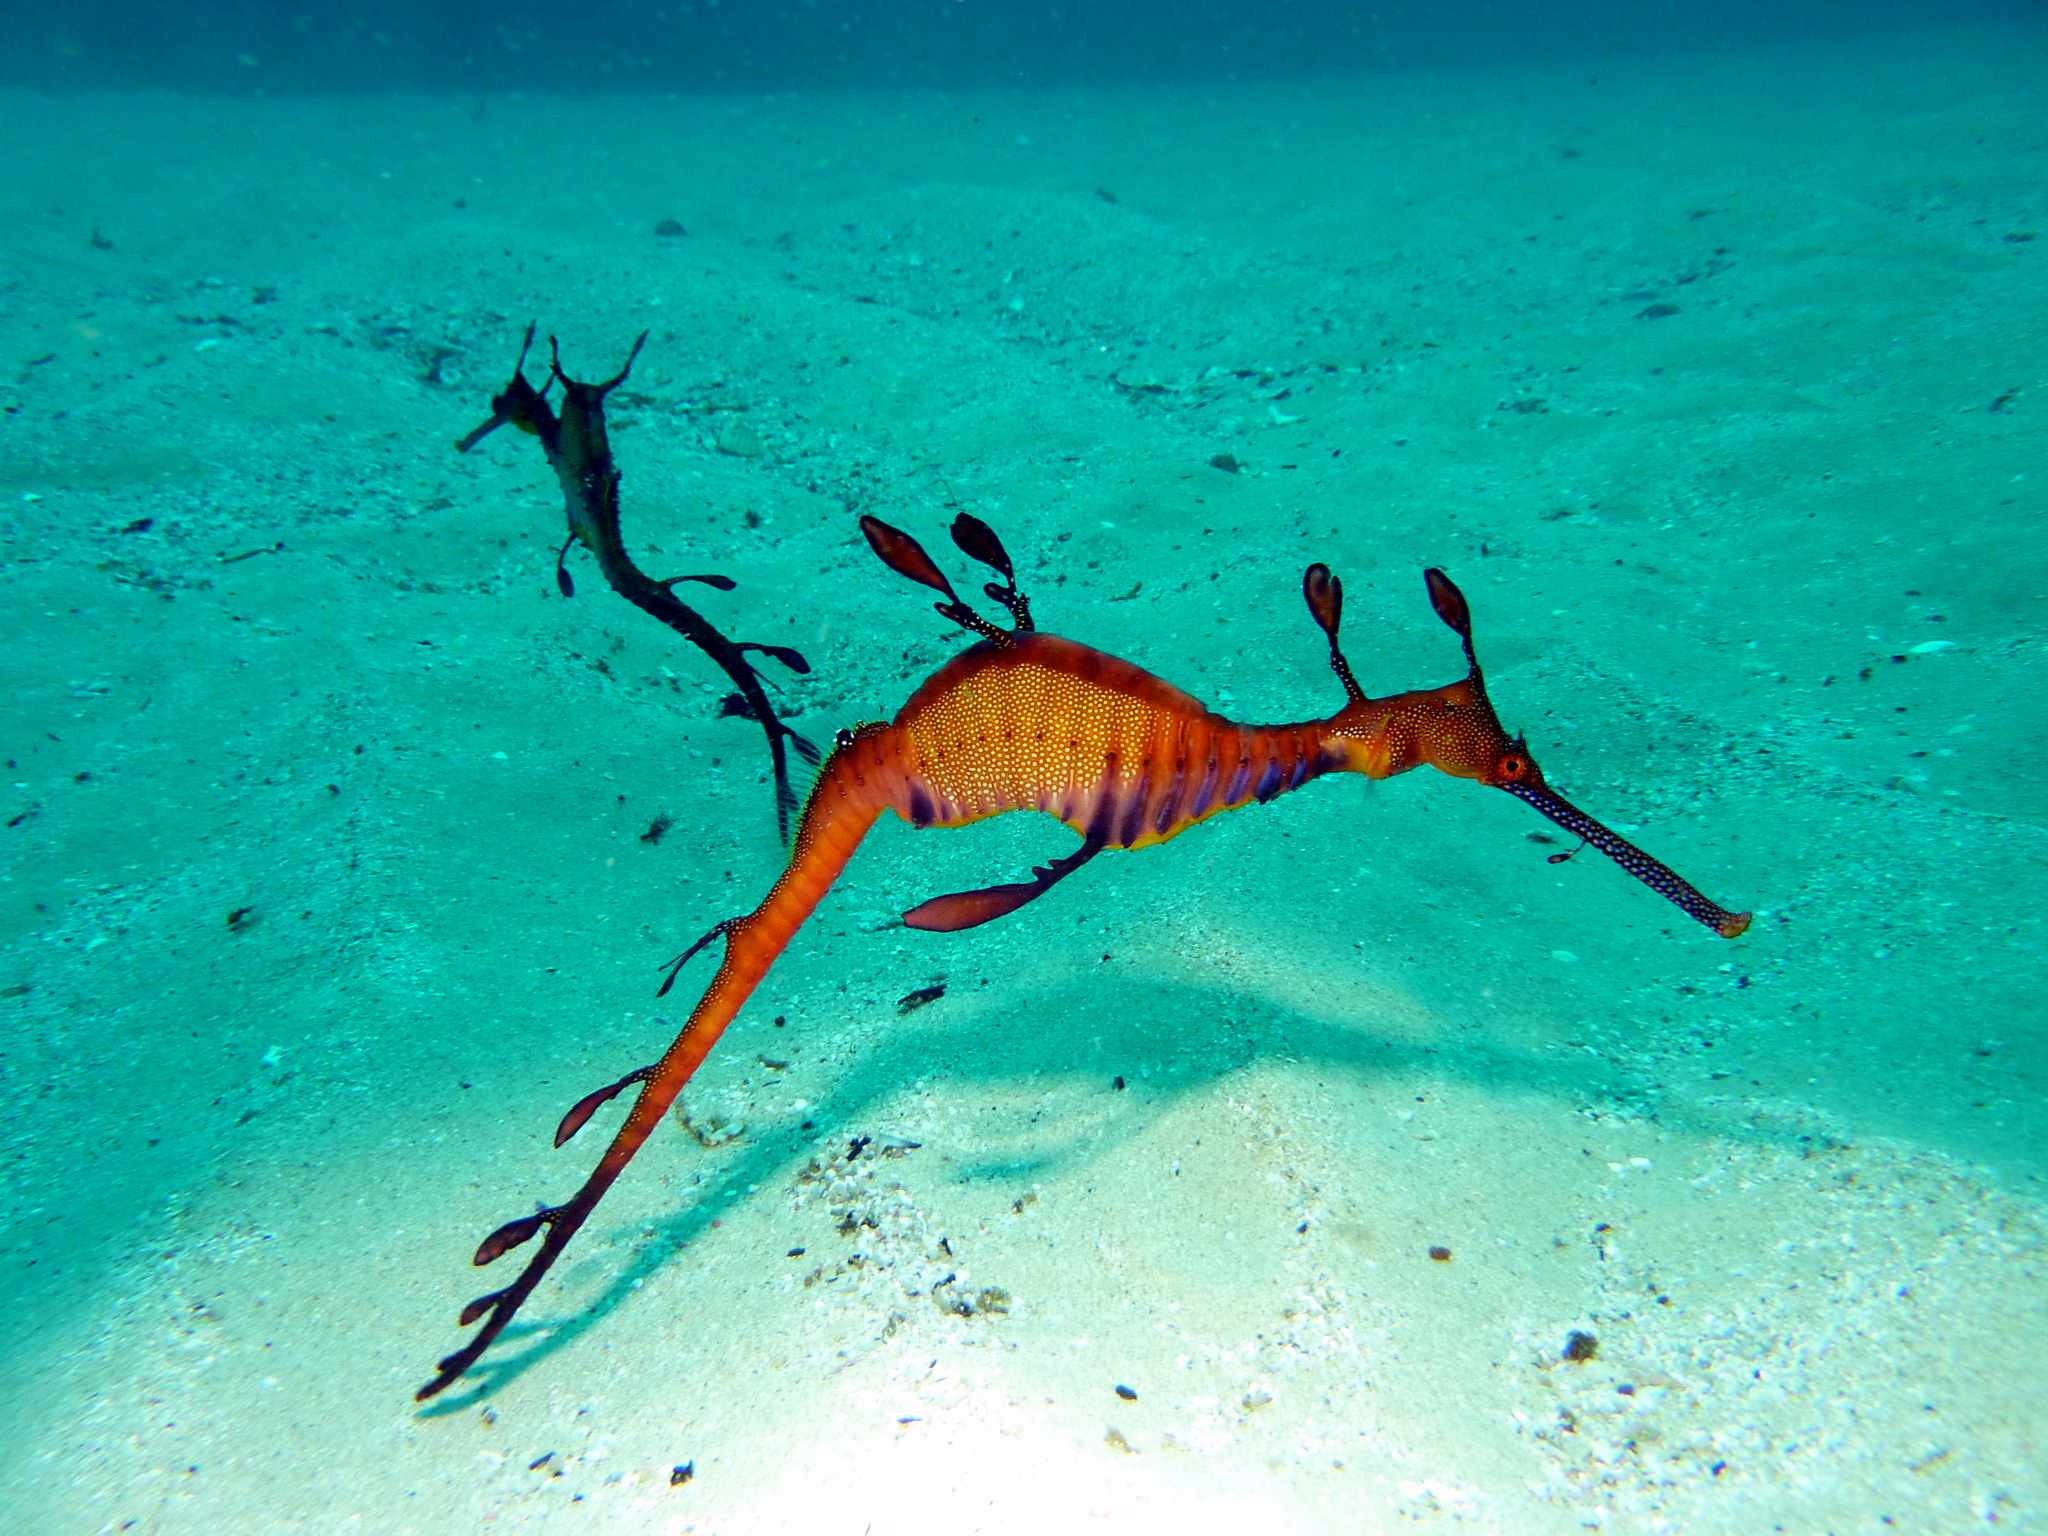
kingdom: Animalia
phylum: Chordata
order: Syngnathiformes
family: Syngnathidae
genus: Phyllopteryx
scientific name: Phyllopteryx taeniolatus
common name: Common seadragon
